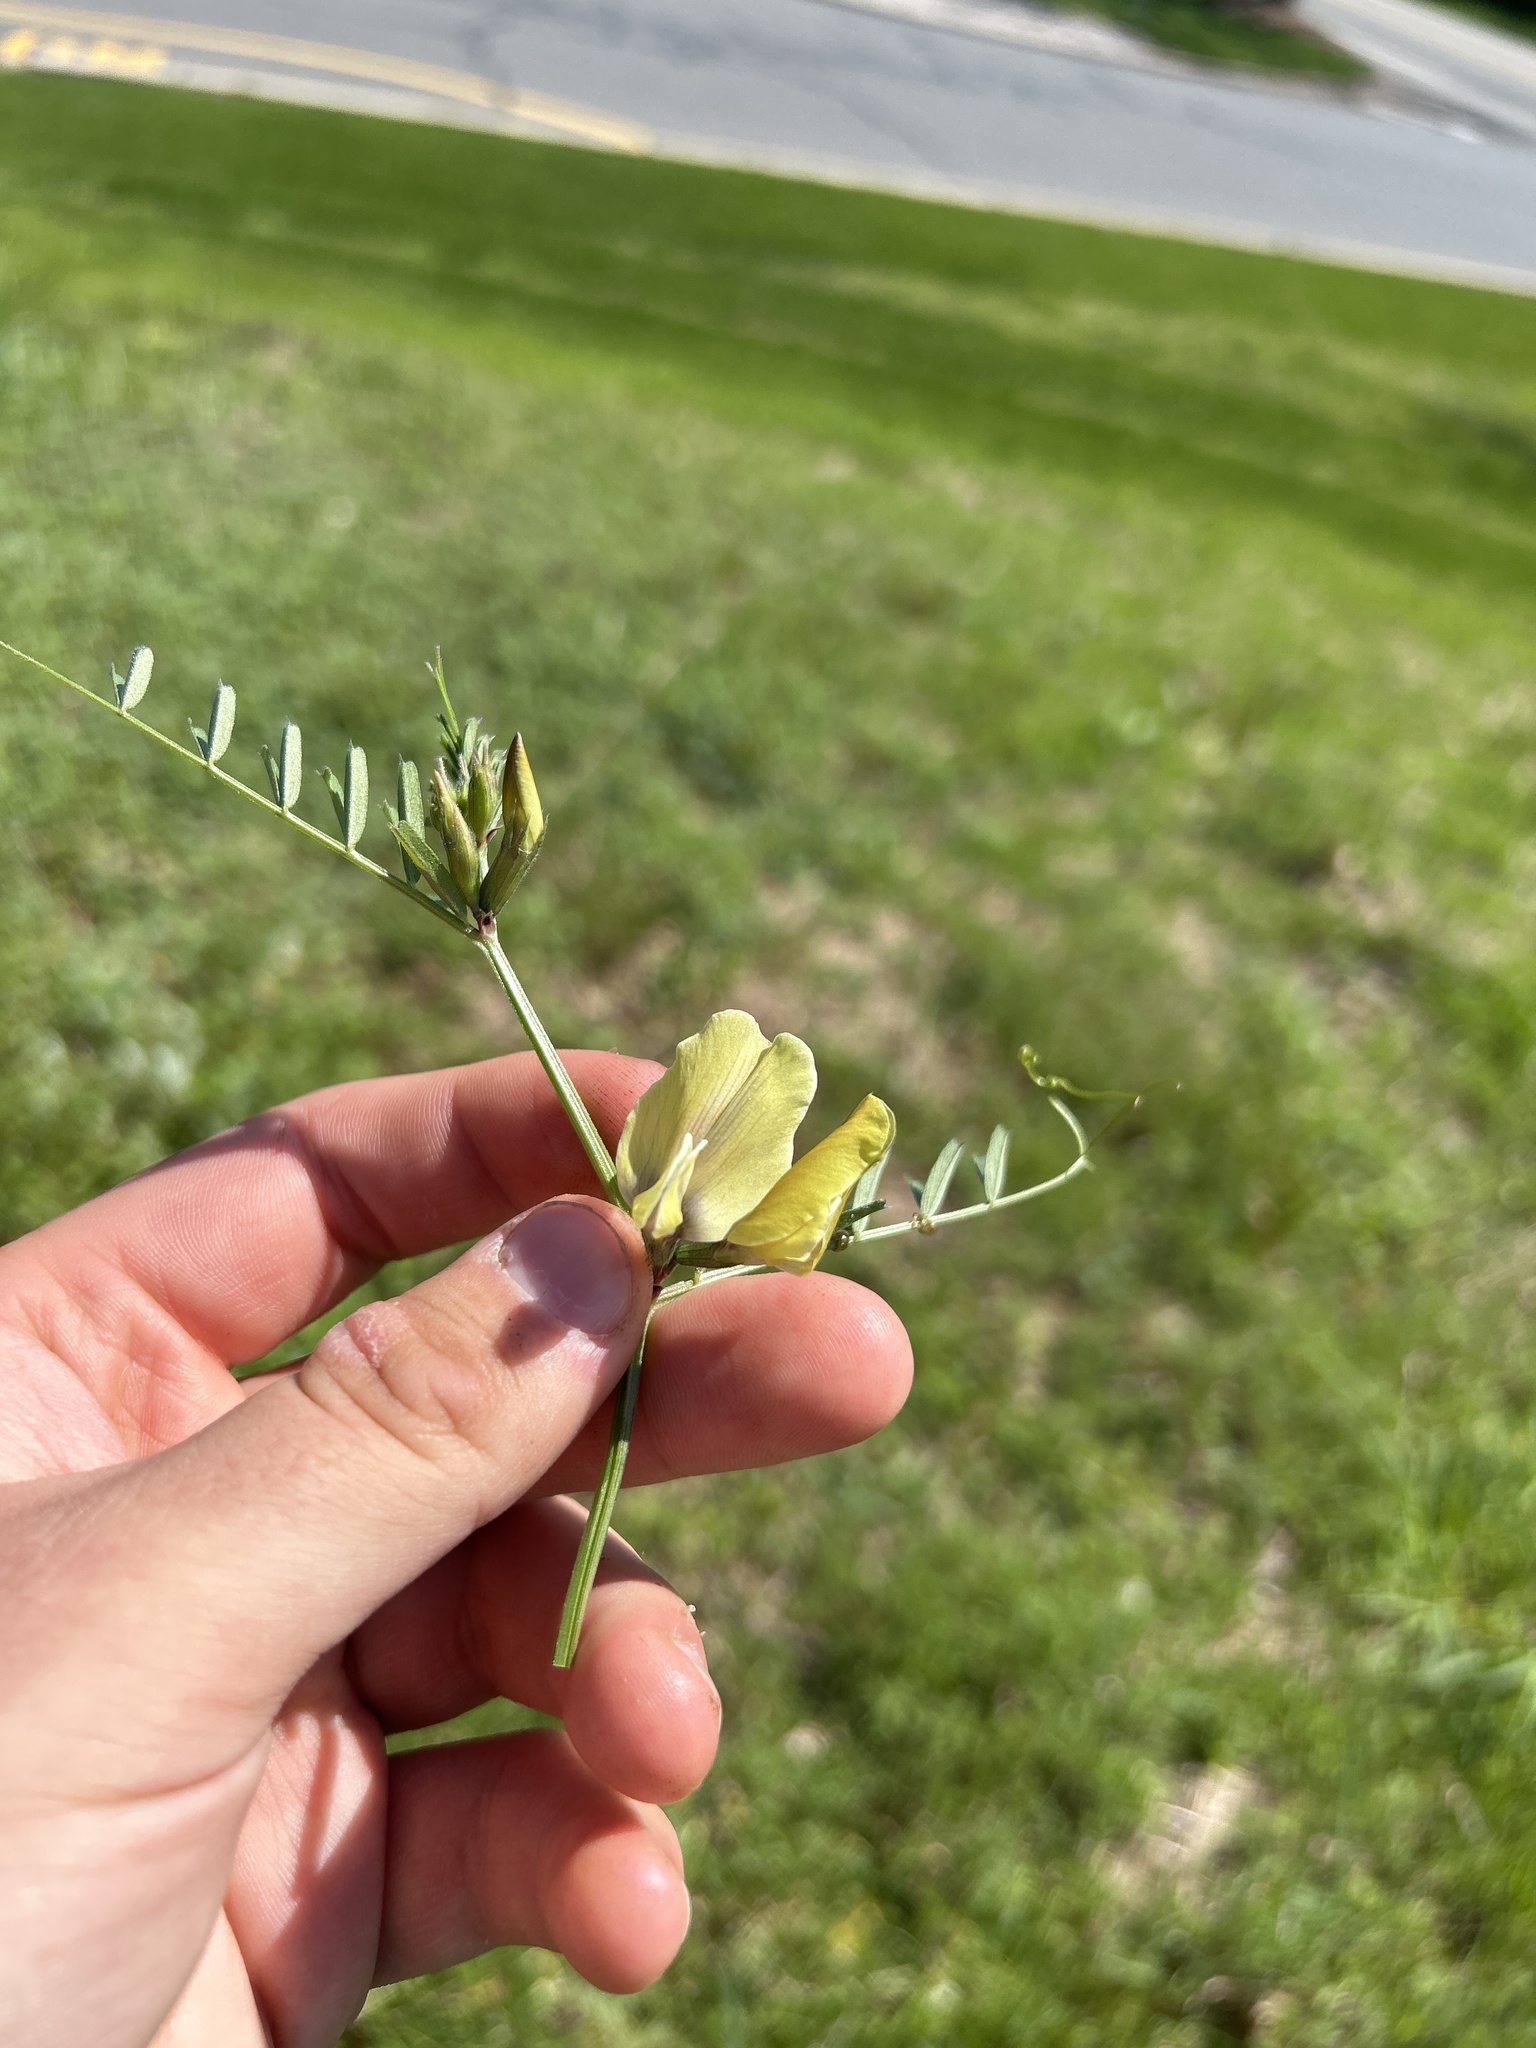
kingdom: Plantae
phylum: Tracheophyta
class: Magnoliopsida
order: Fabales
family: Fabaceae
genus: Vicia
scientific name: Vicia grandiflora
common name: Large yellow vetch
